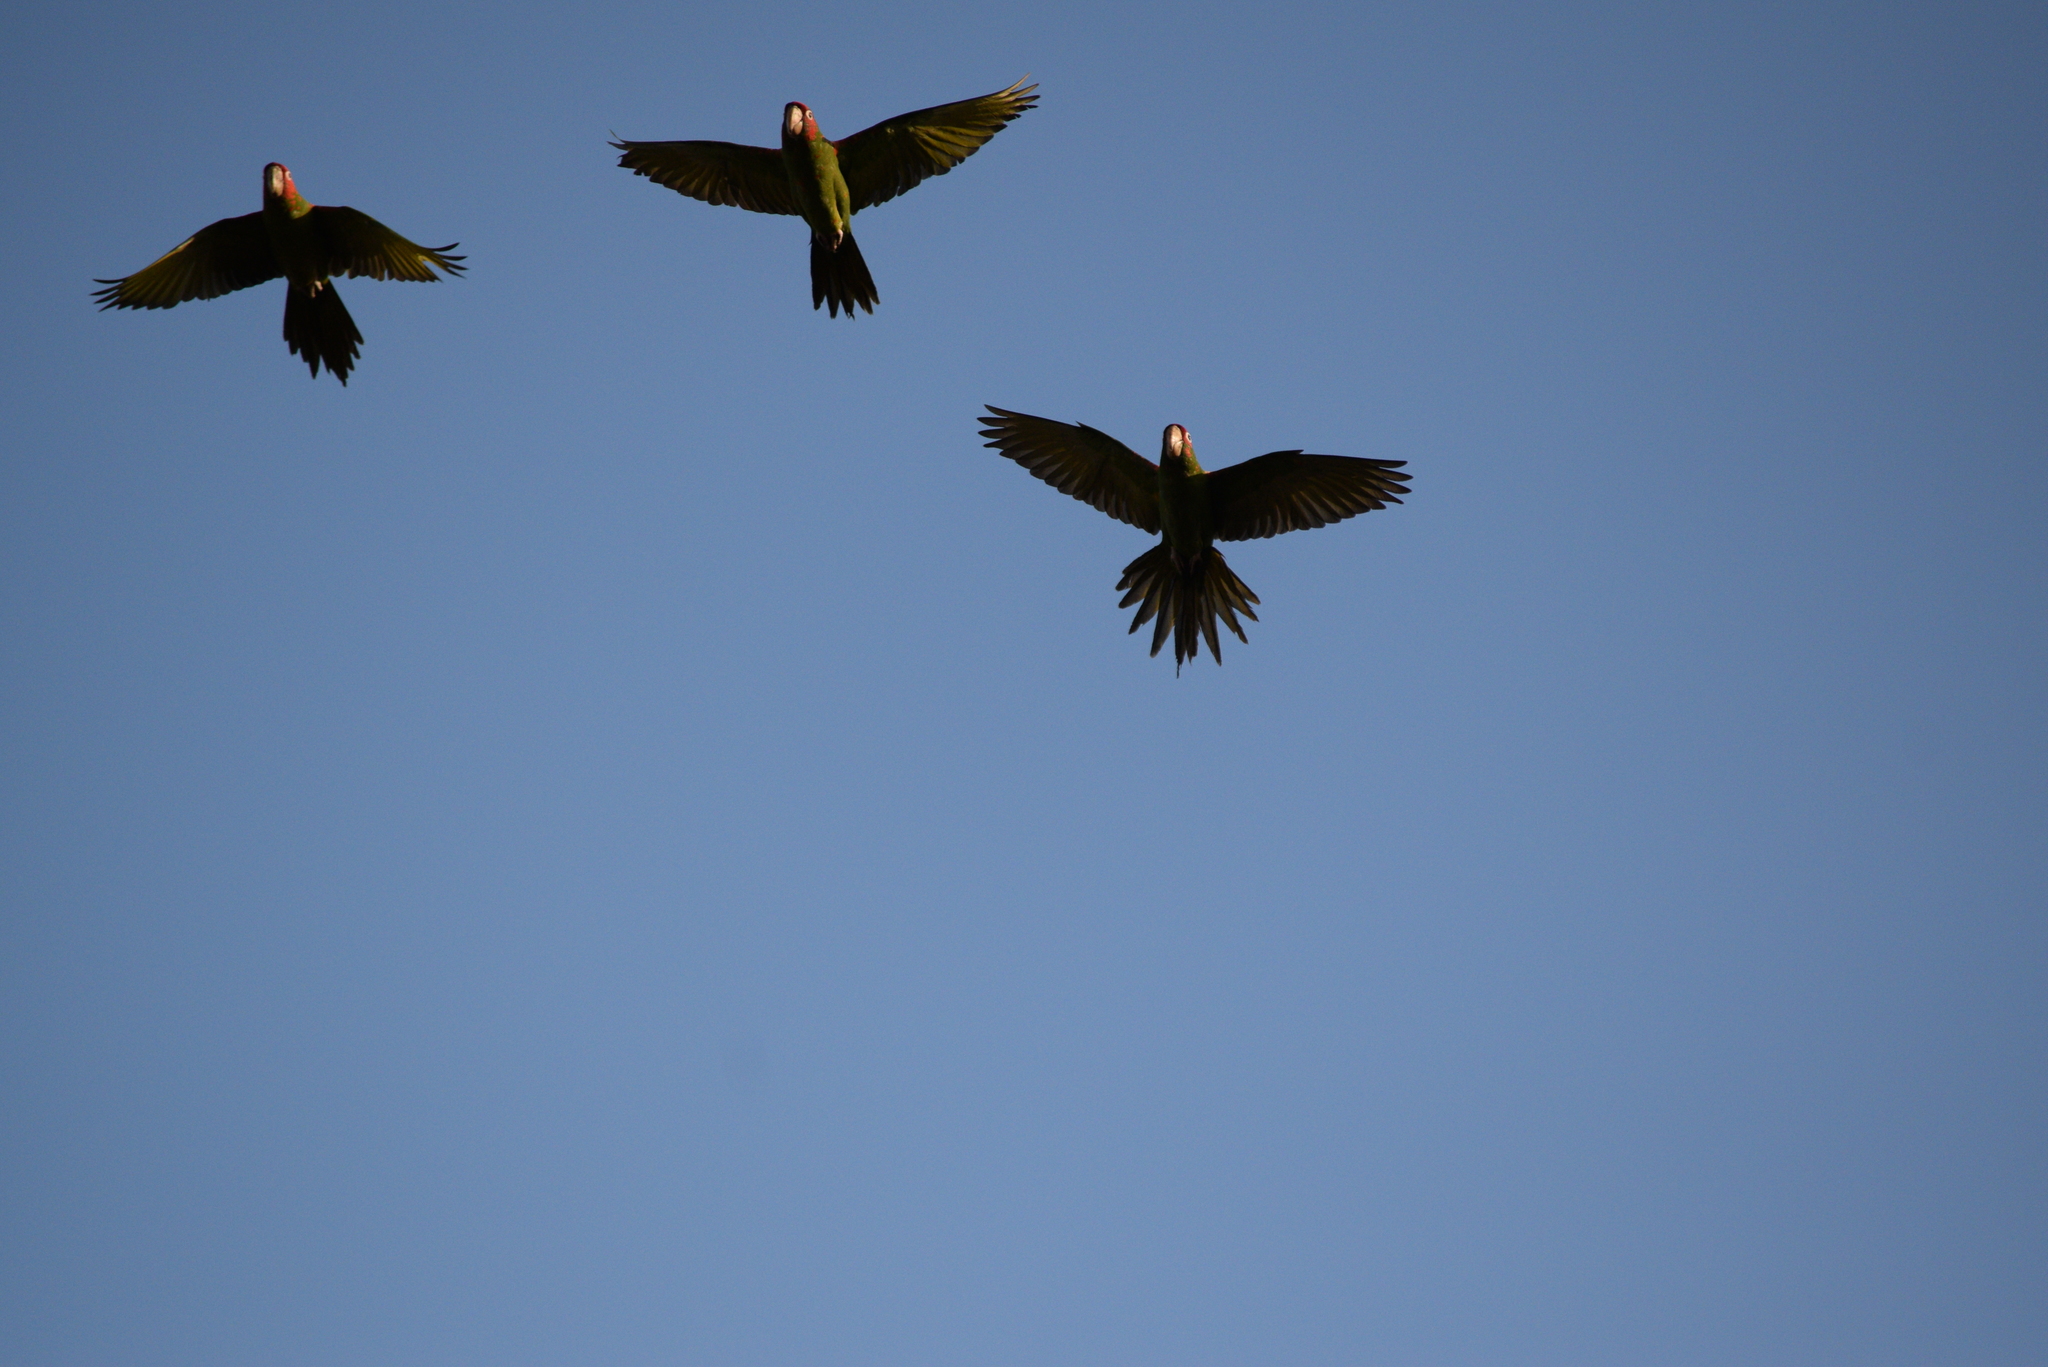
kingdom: Animalia
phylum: Chordata
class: Aves
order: Psittaciformes
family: Psittacidae
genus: Aratinga
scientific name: Aratinga mitrata
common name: Mitred parakeet
